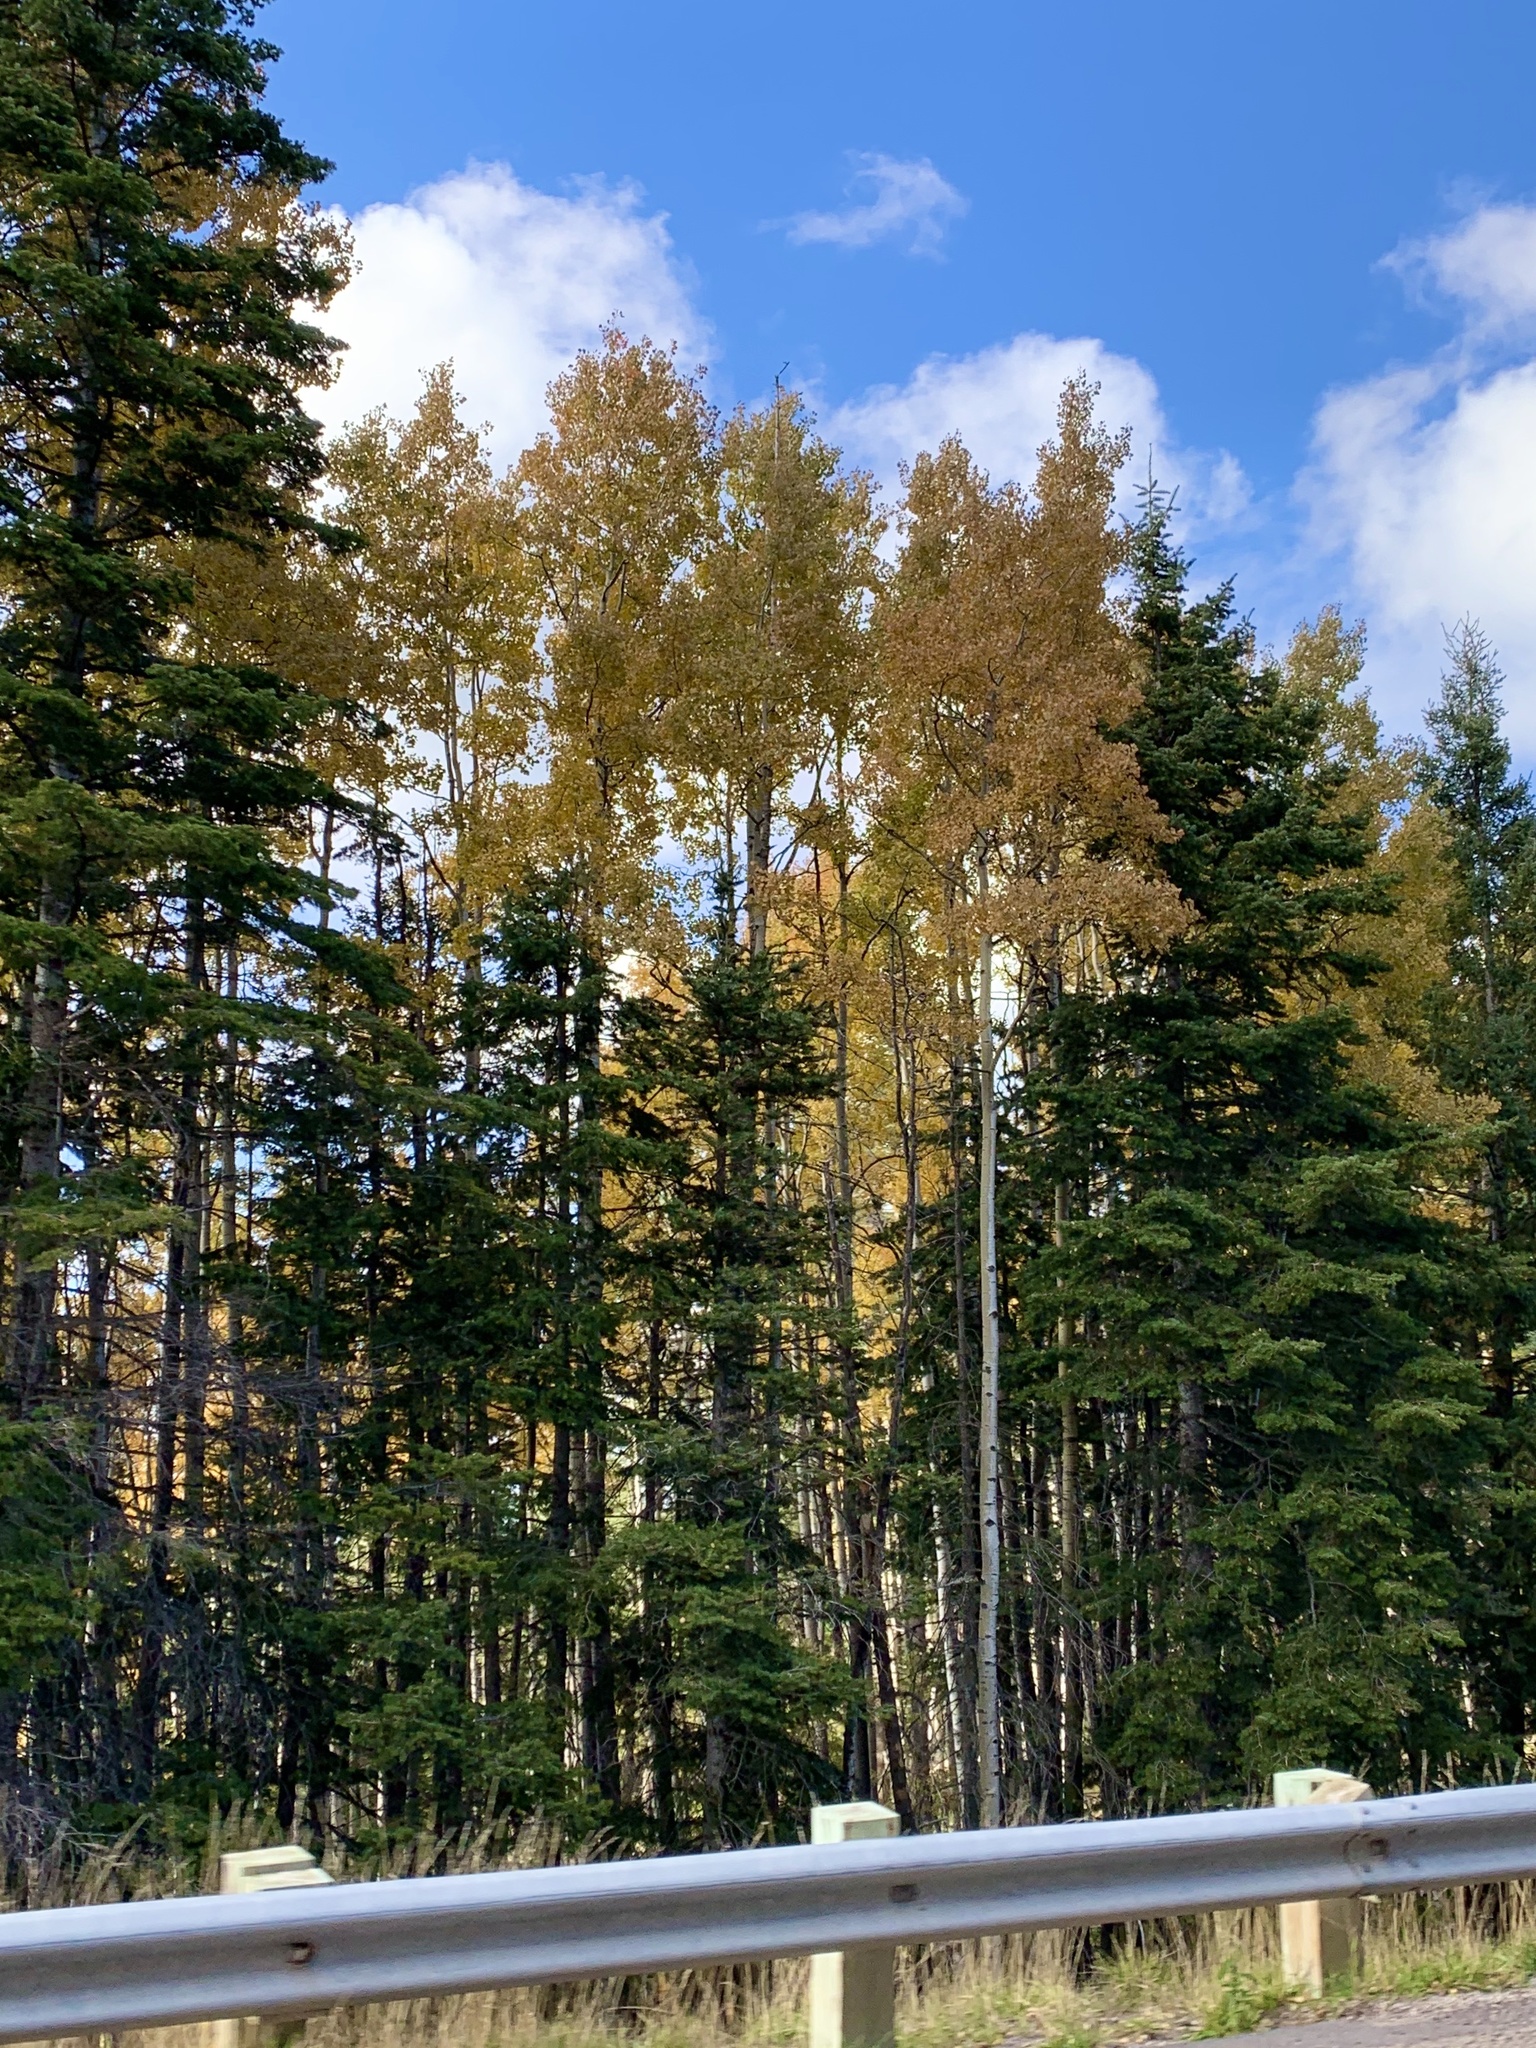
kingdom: Plantae
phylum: Tracheophyta
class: Magnoliopsida
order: Malpighiales
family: Salicaceae
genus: Populus
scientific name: Populus tremuloides
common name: Quaking aspen
